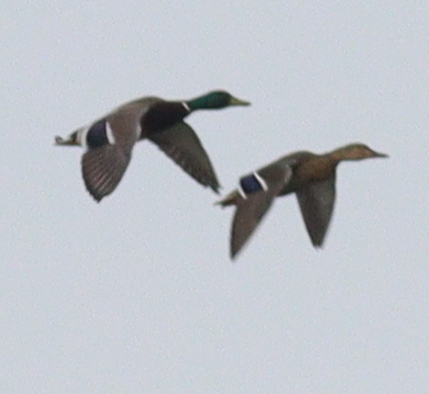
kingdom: Animalia
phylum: Chordata
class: Aves
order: Anseriformes
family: Anatidae
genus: Anas
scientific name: Anas platyrhynchos
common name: Mallard
